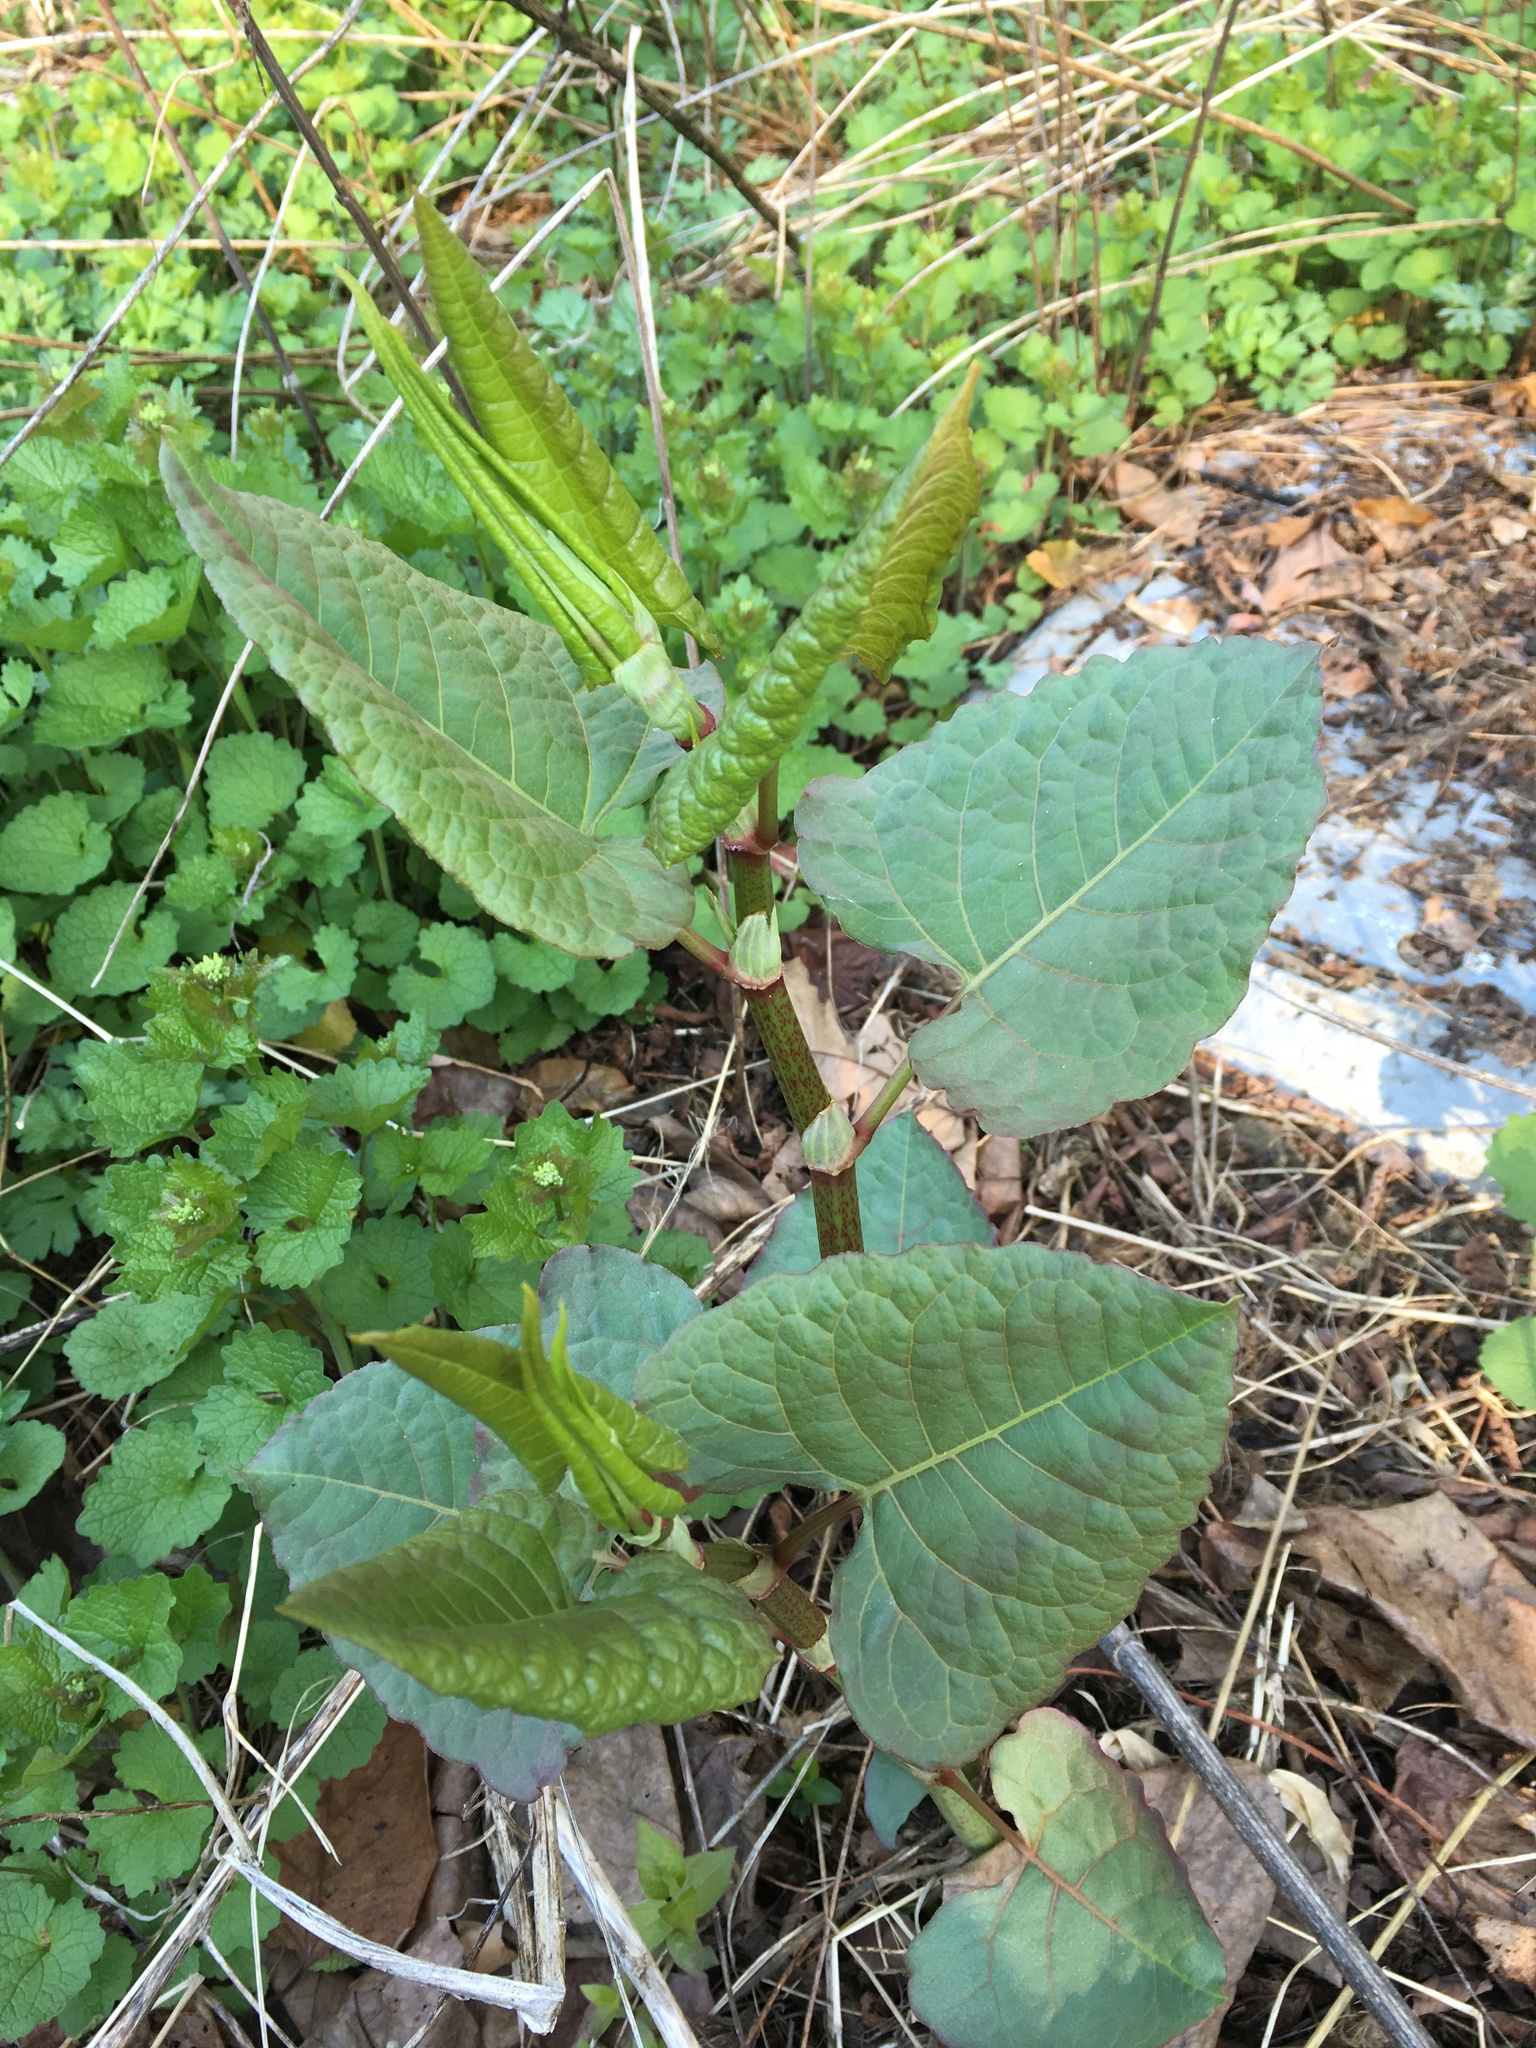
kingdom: Plantae
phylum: Tracheophyta
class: Magnoliopsida
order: Caryophyllales
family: Polygonaceae
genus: Reynoutria
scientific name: Reynoutria bohemica
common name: Bohemian knotweed
